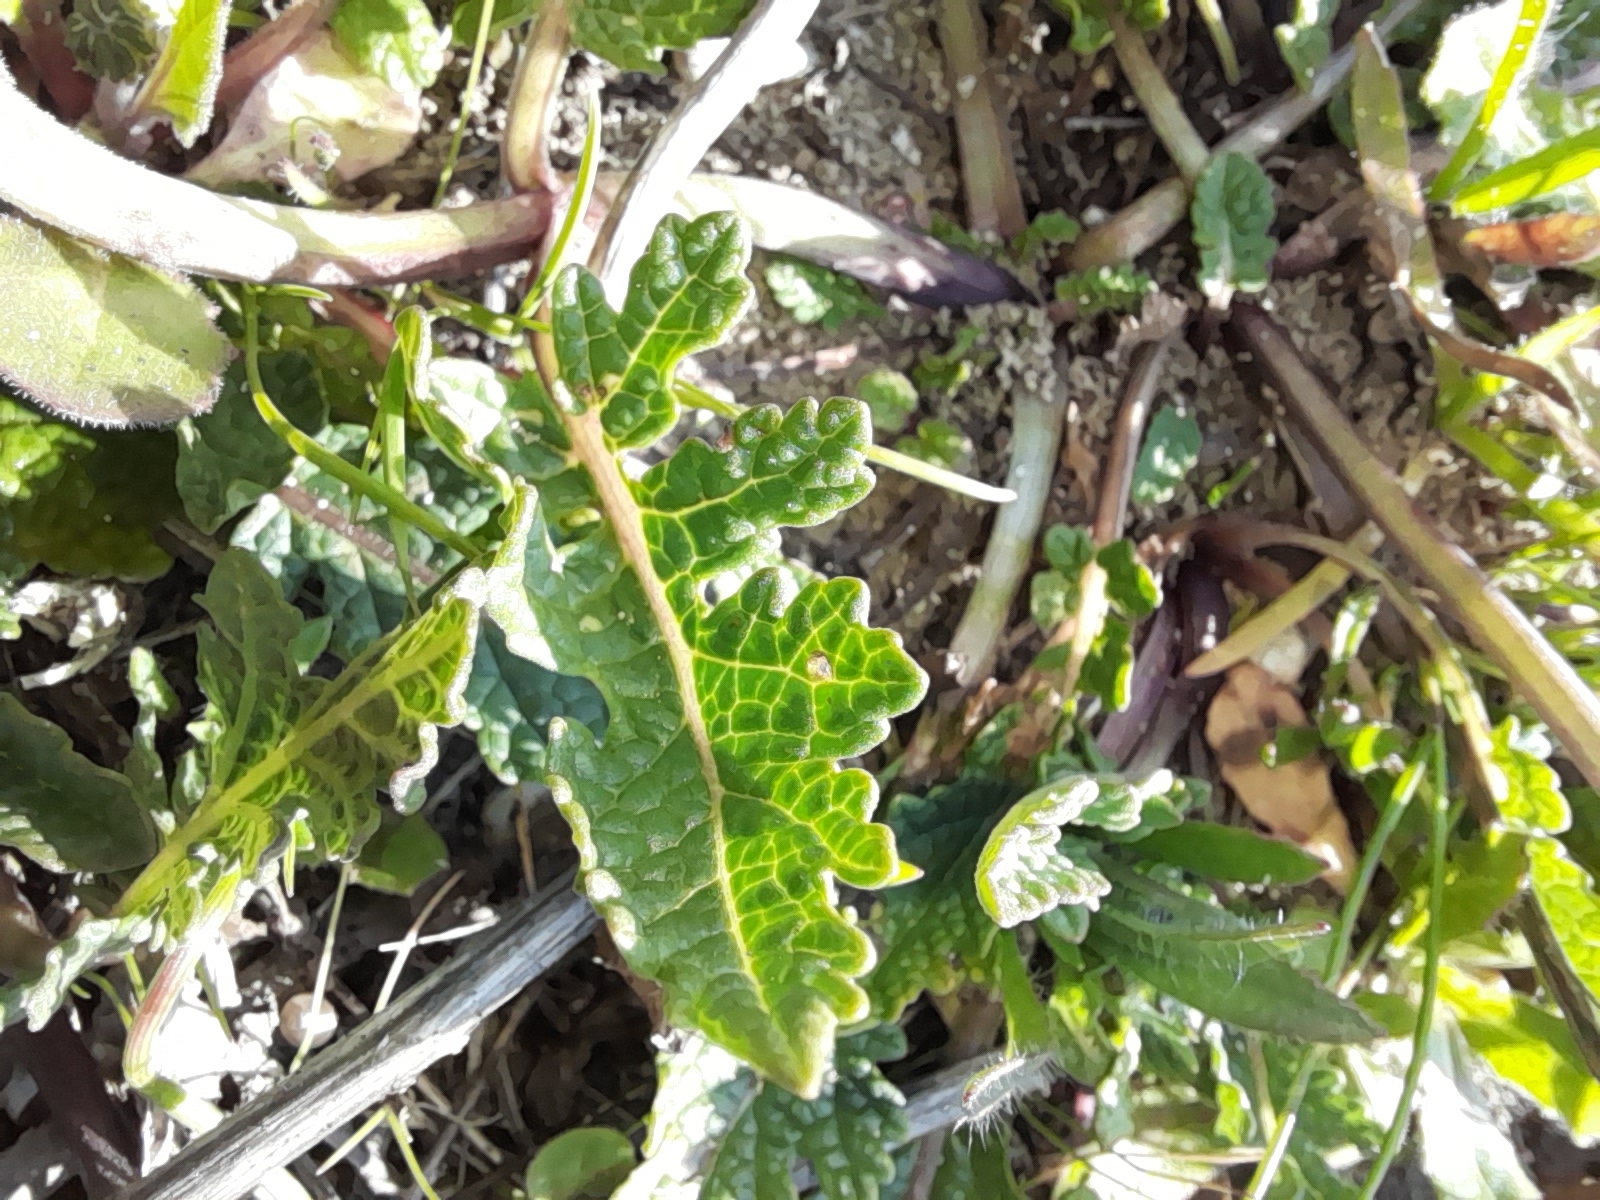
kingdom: Plantae
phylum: Tracheophyta
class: Magnoliopsida
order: Lamiales
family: Lamiaceae
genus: Salvia
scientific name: Salvia clandestina
